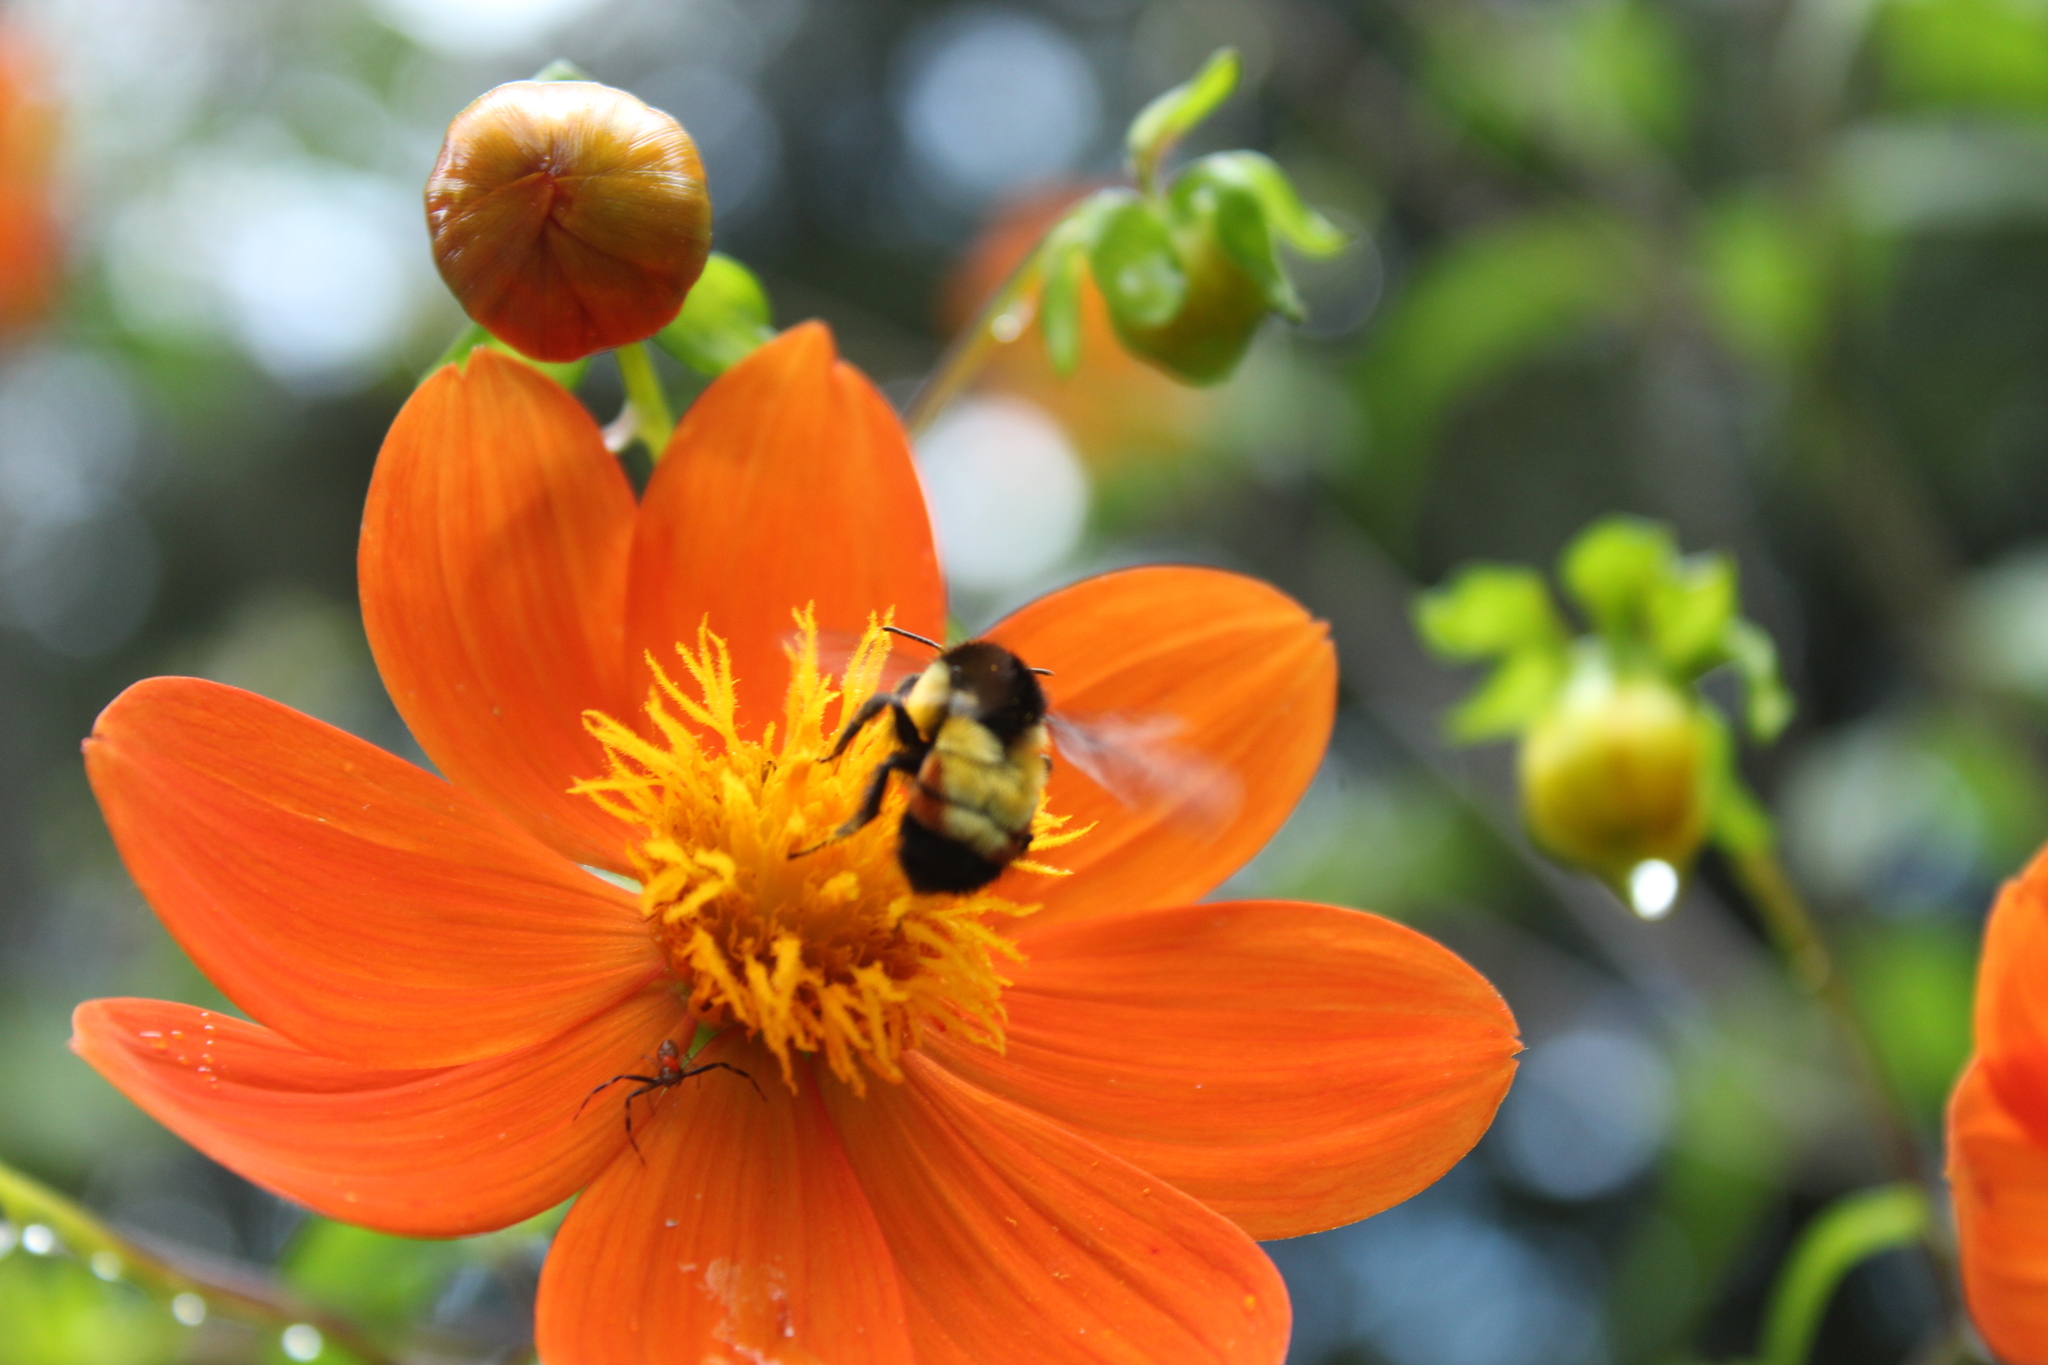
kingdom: Animalia
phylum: Arthropoda
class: Insecta
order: Hymenoptera
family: Apidae
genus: Bombus
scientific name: Bombus ephippiatus
